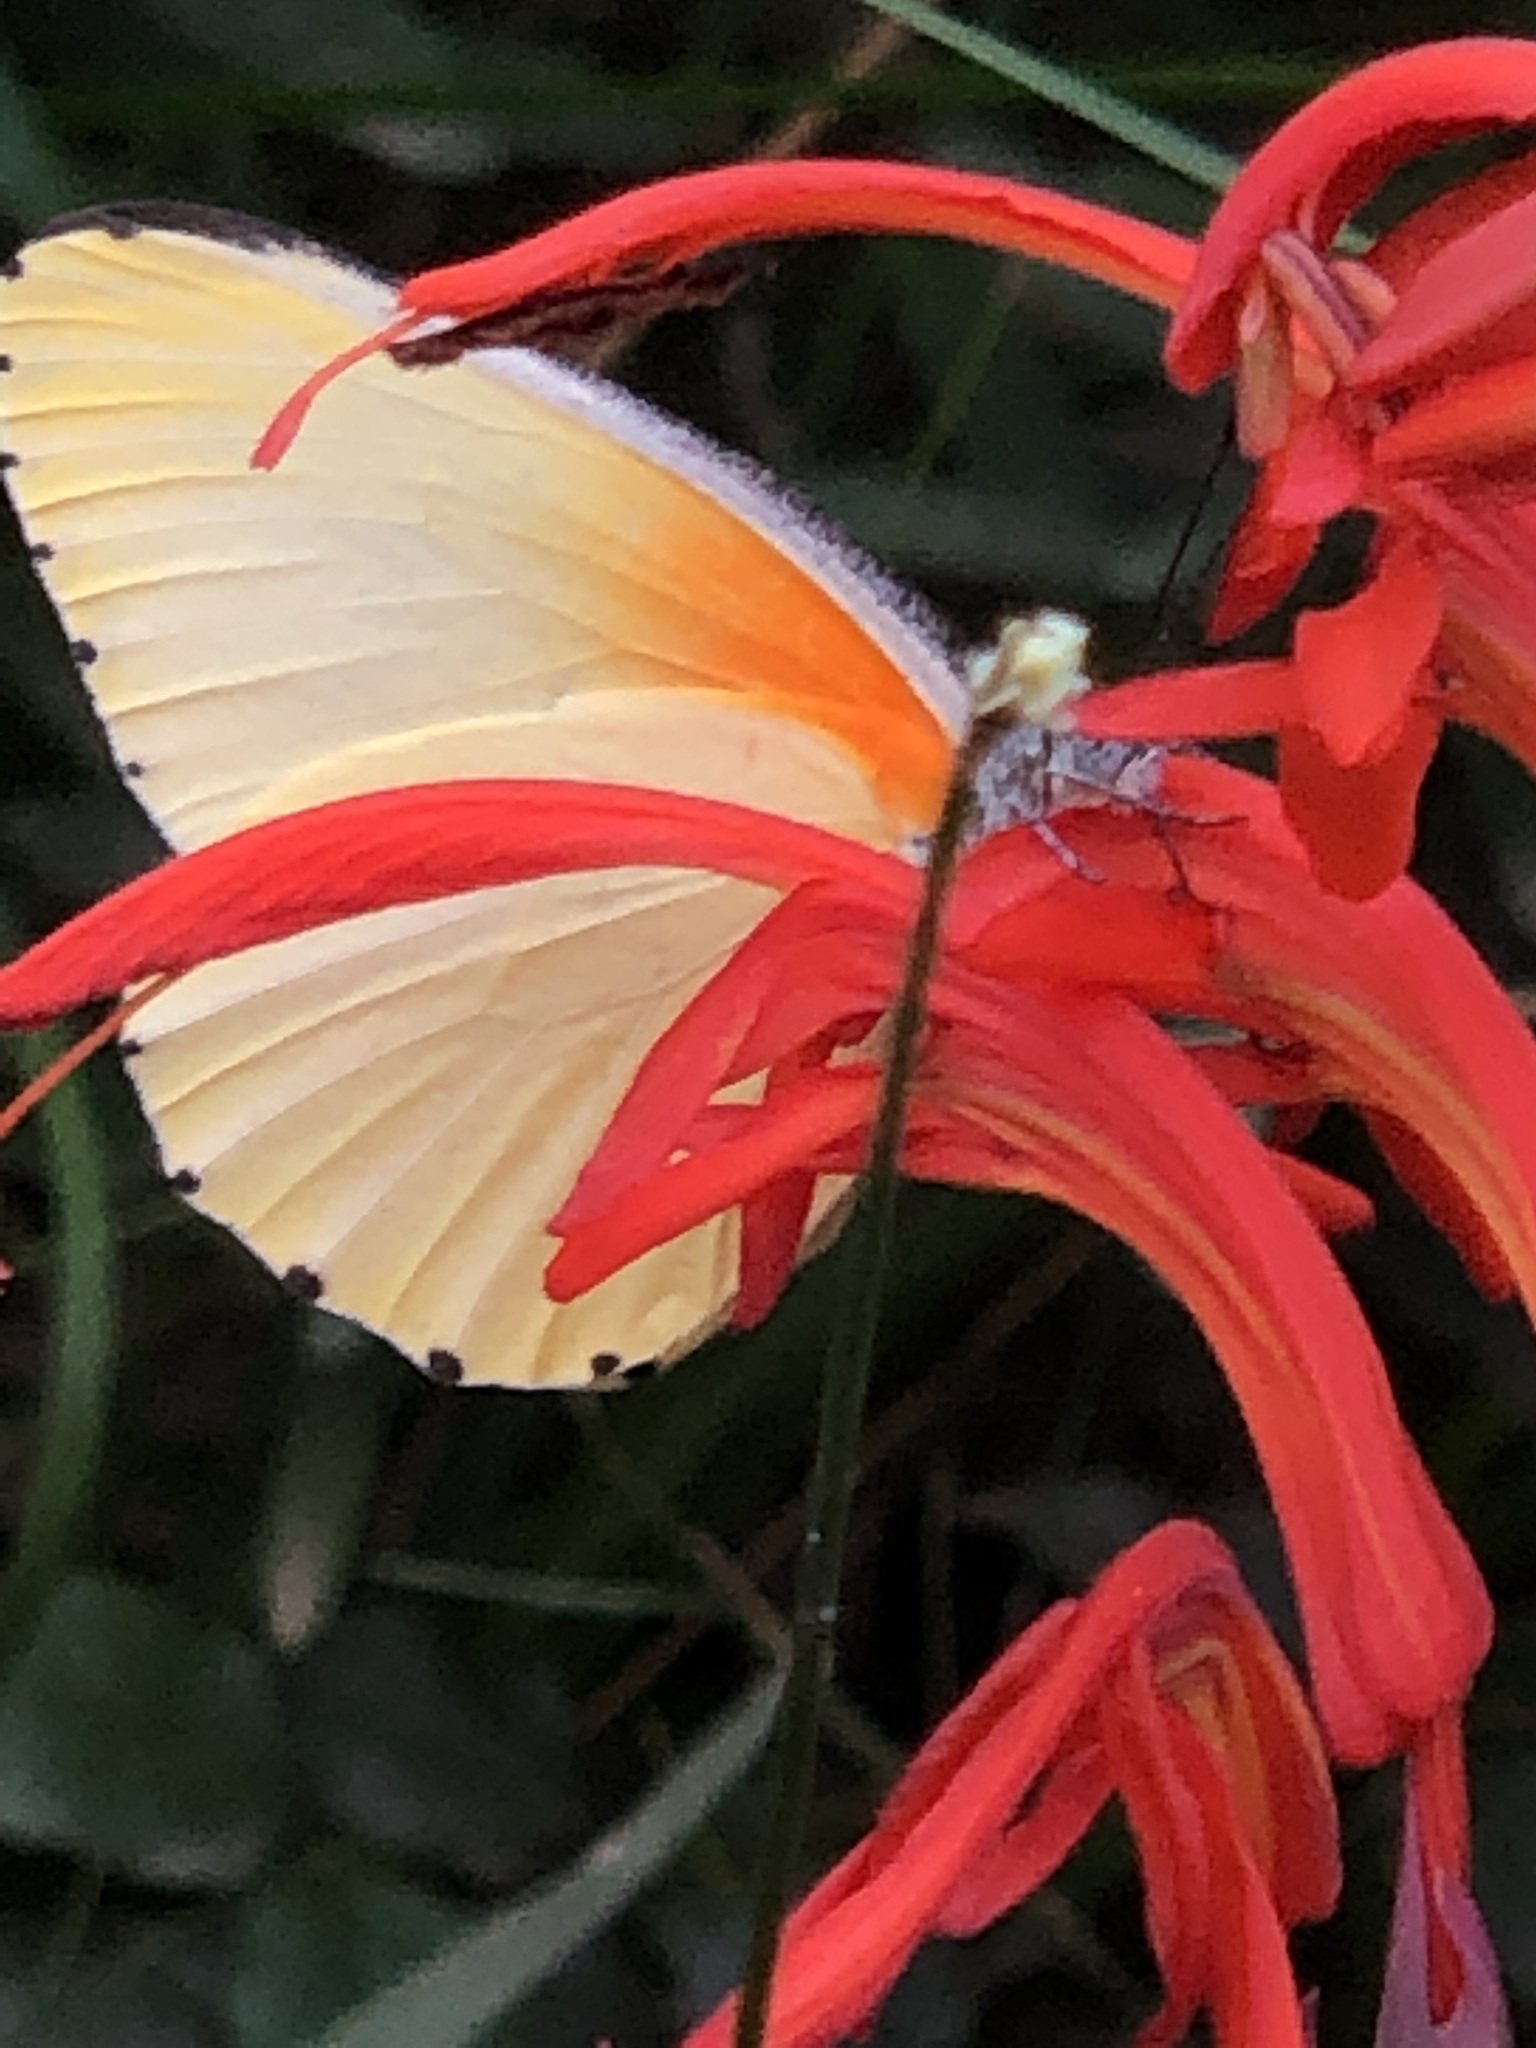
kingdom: Animalia
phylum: Arthropoda
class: Insecta
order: Lepidoptera
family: Pieridae
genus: Mylothris
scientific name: Mylothris agathina
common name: Eastern dotted border
